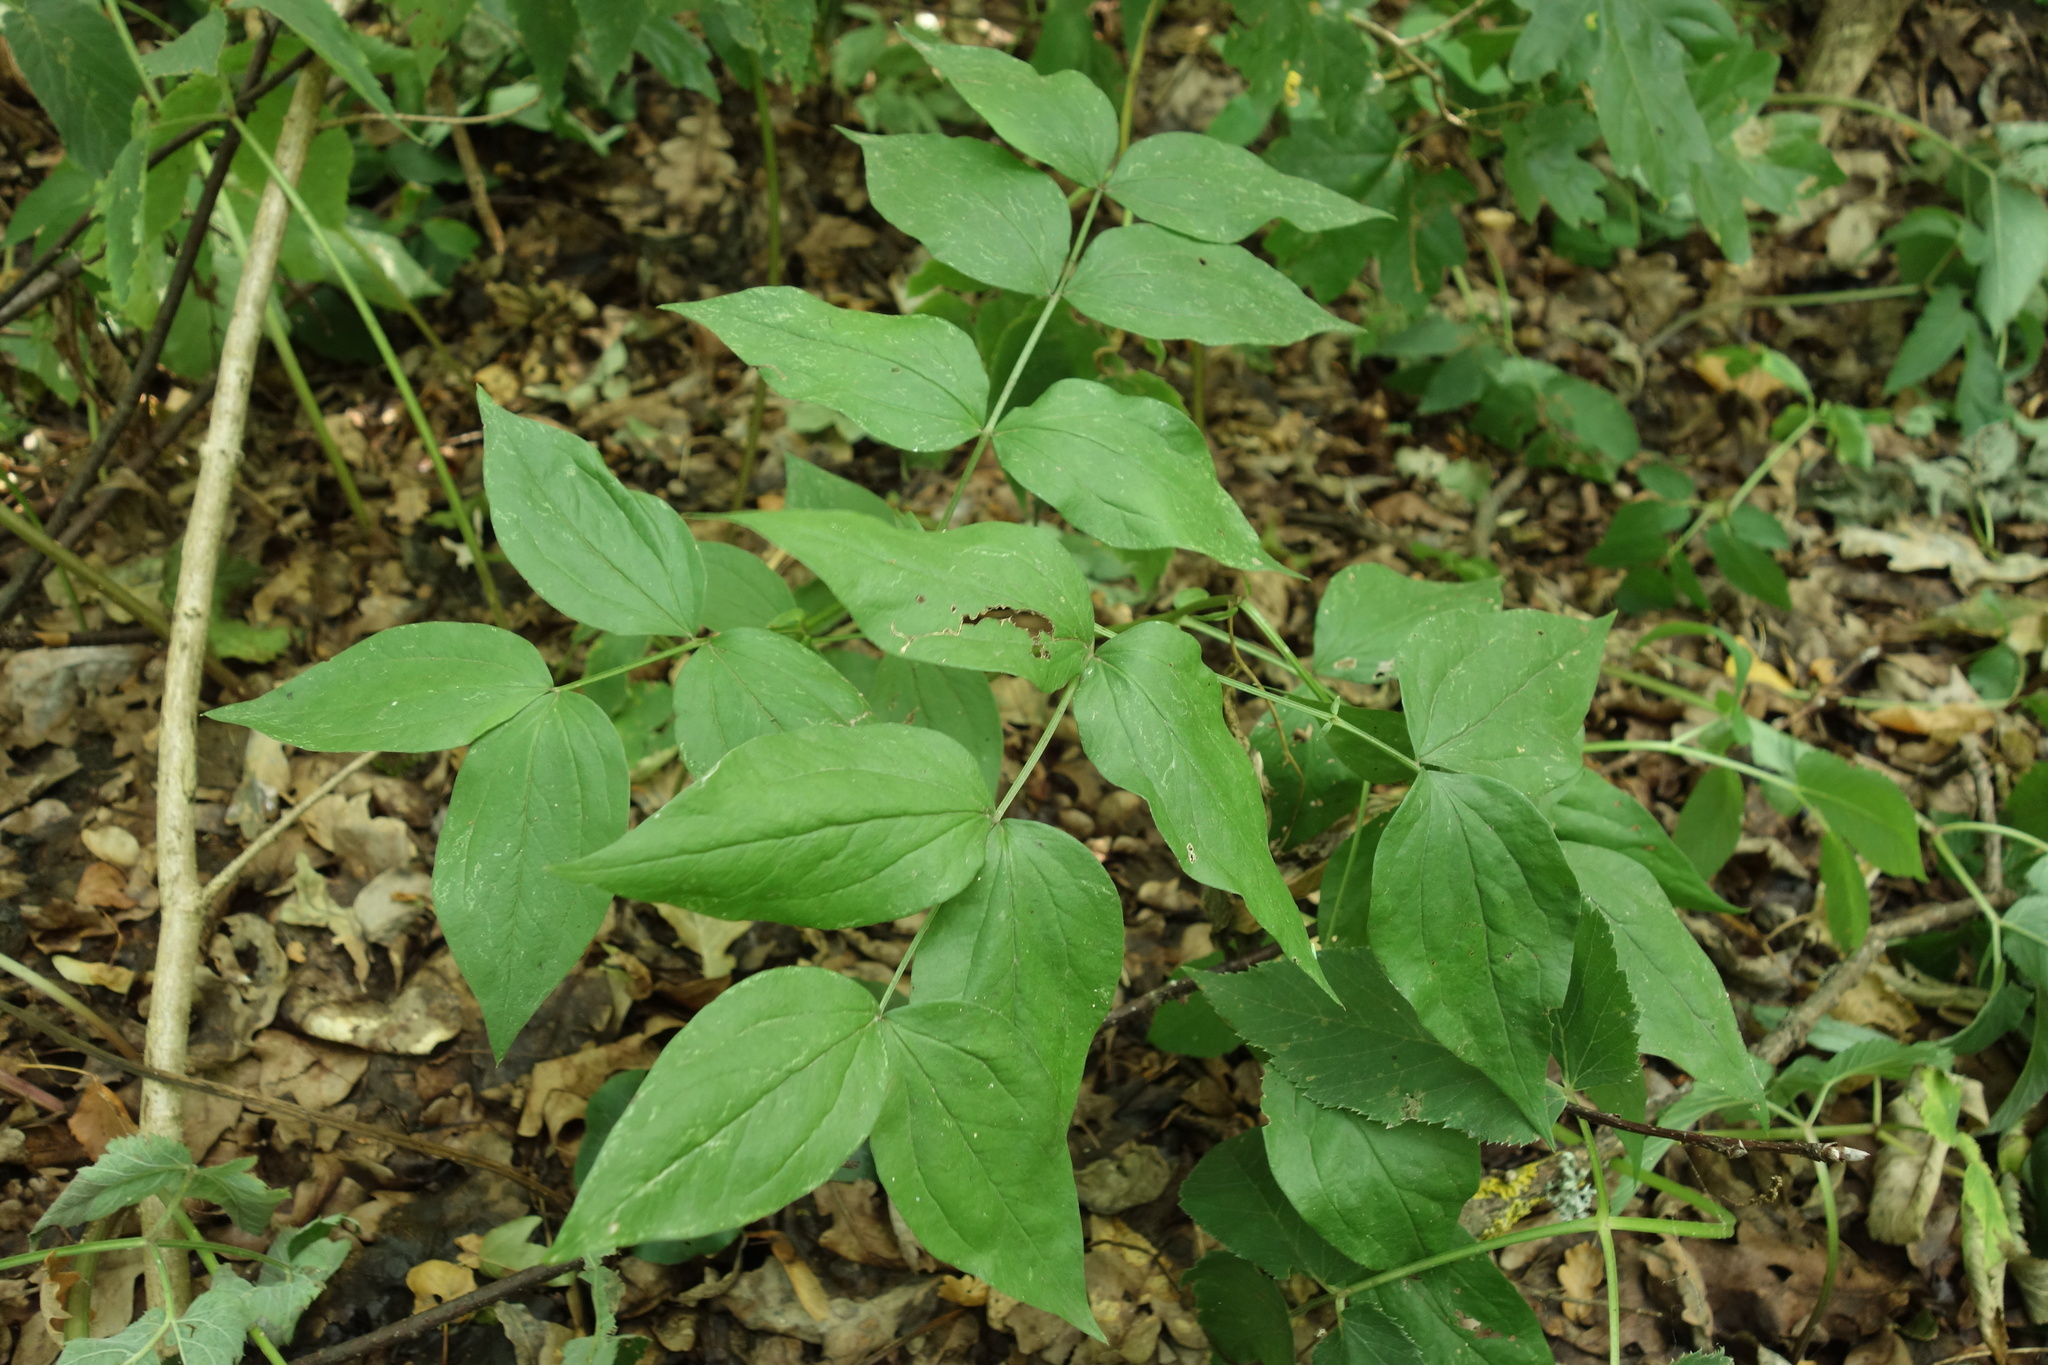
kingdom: Plantae
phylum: Tracheophyta
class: Magnoliopsida
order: Fabales
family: Fabaceae
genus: Lathyrus
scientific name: Lathyrus vernus
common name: Spring pea
